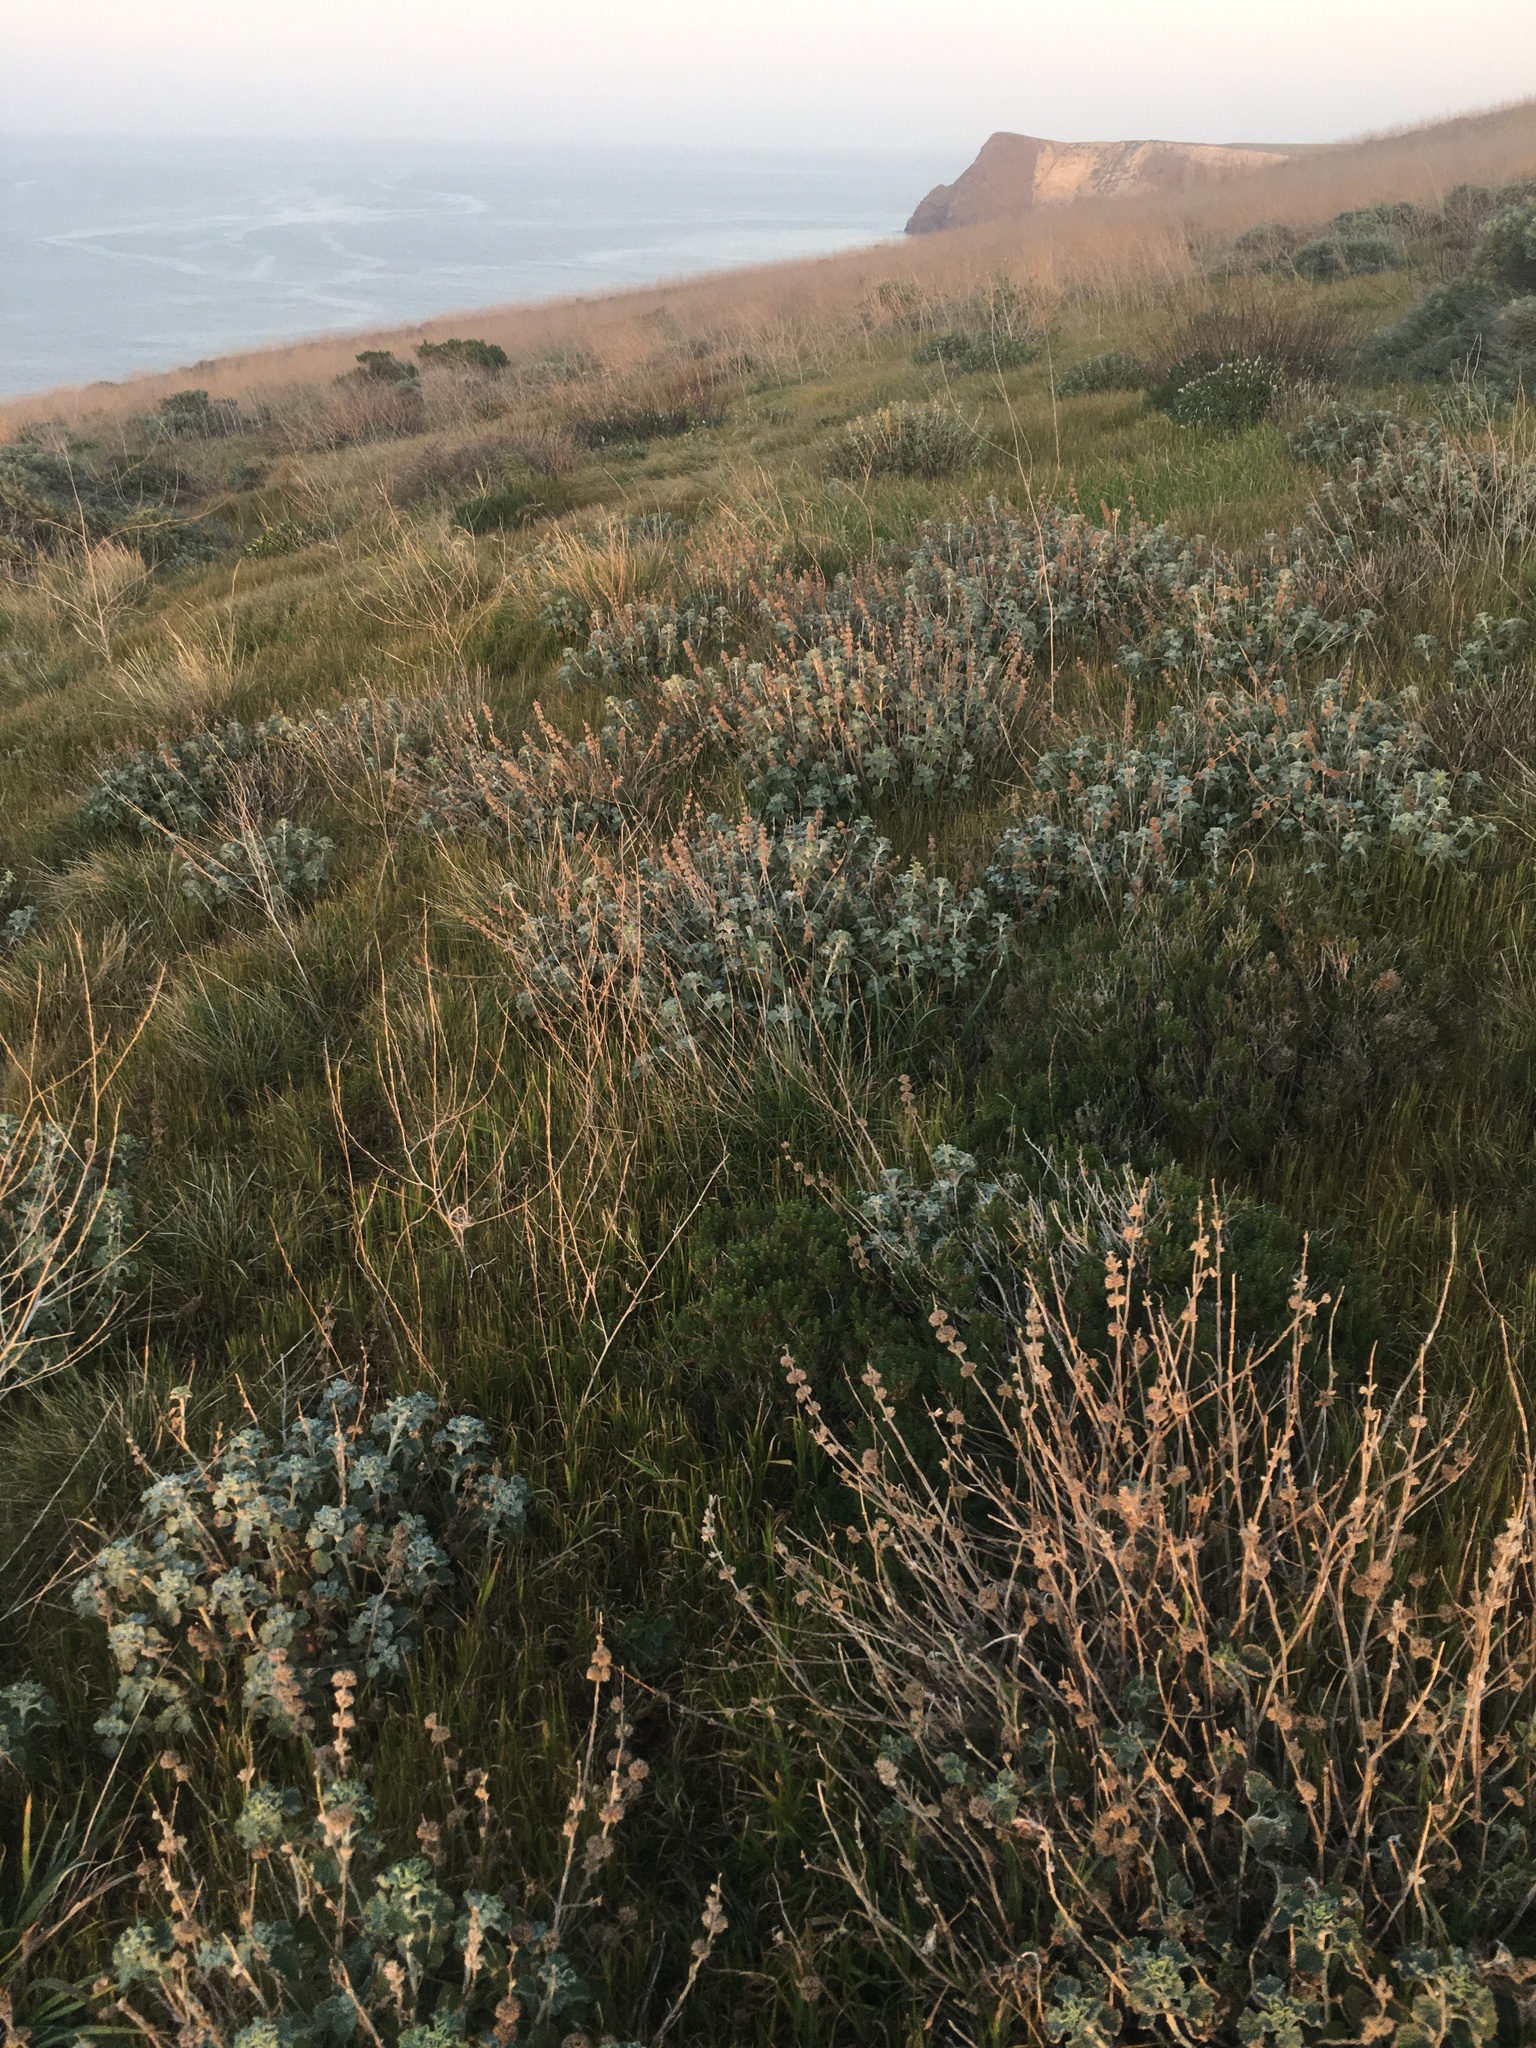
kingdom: Plantae
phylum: Tracheophyta
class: Magnoliopsida
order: Lamiales
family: Lamiaceae
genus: Marrubium
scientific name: Marrubium vulgare
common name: Horehound
